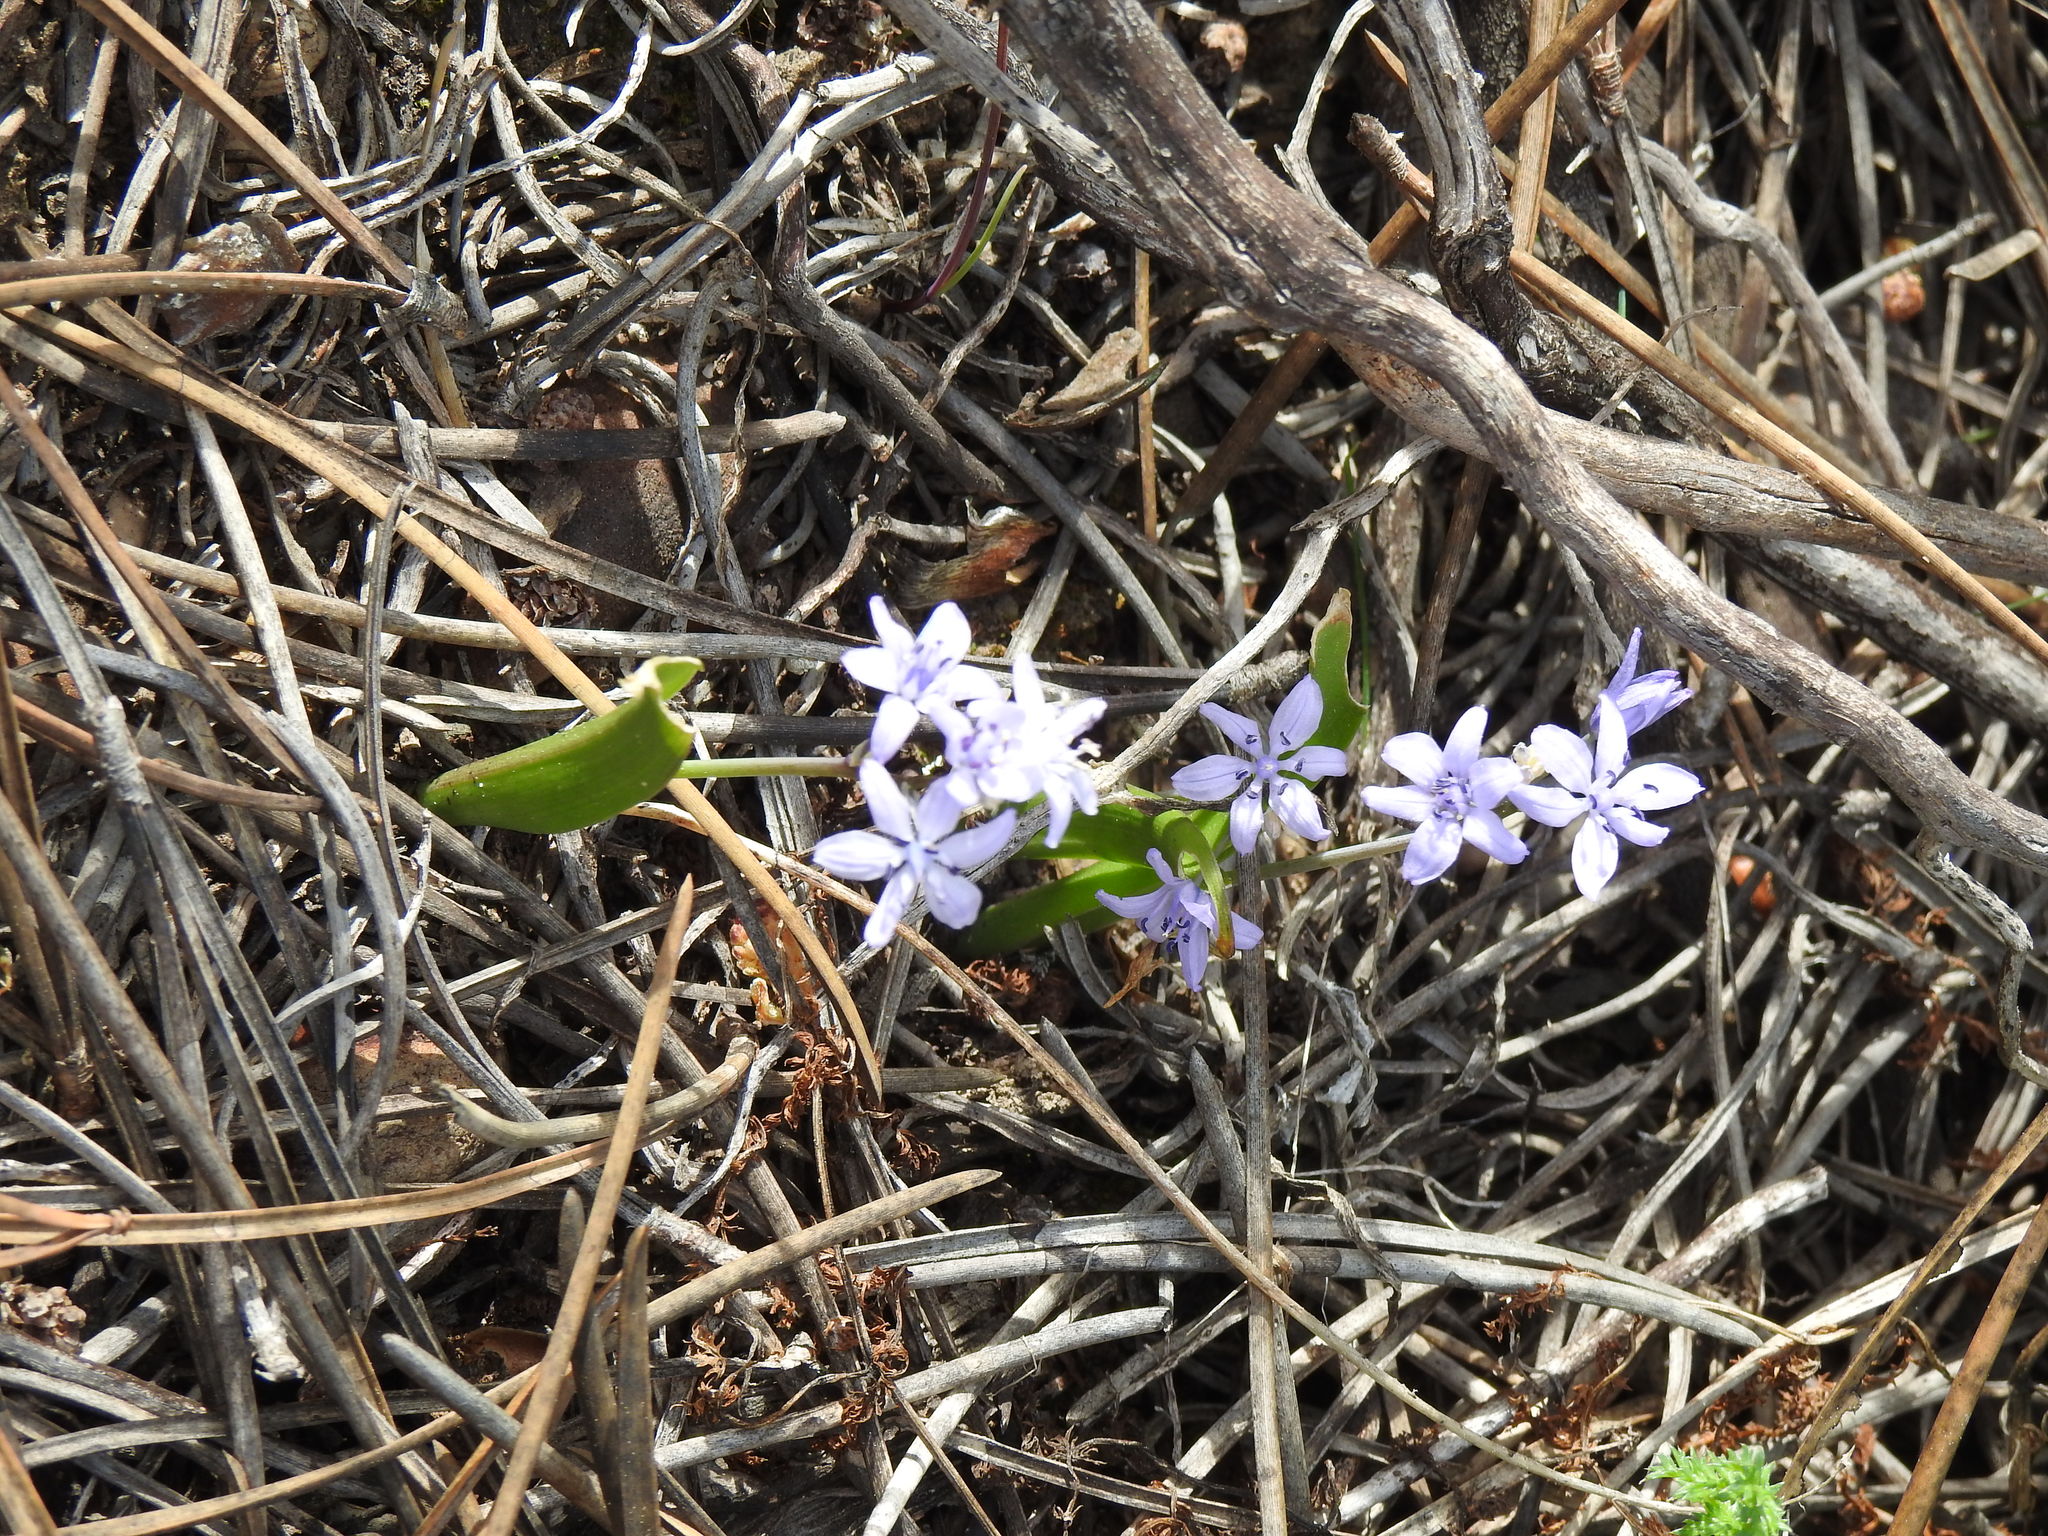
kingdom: Plantae
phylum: Tracheophyta
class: Liliopsida
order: Asparagales
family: Asparagaceae
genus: Scilla
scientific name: Scilla monophyllos
